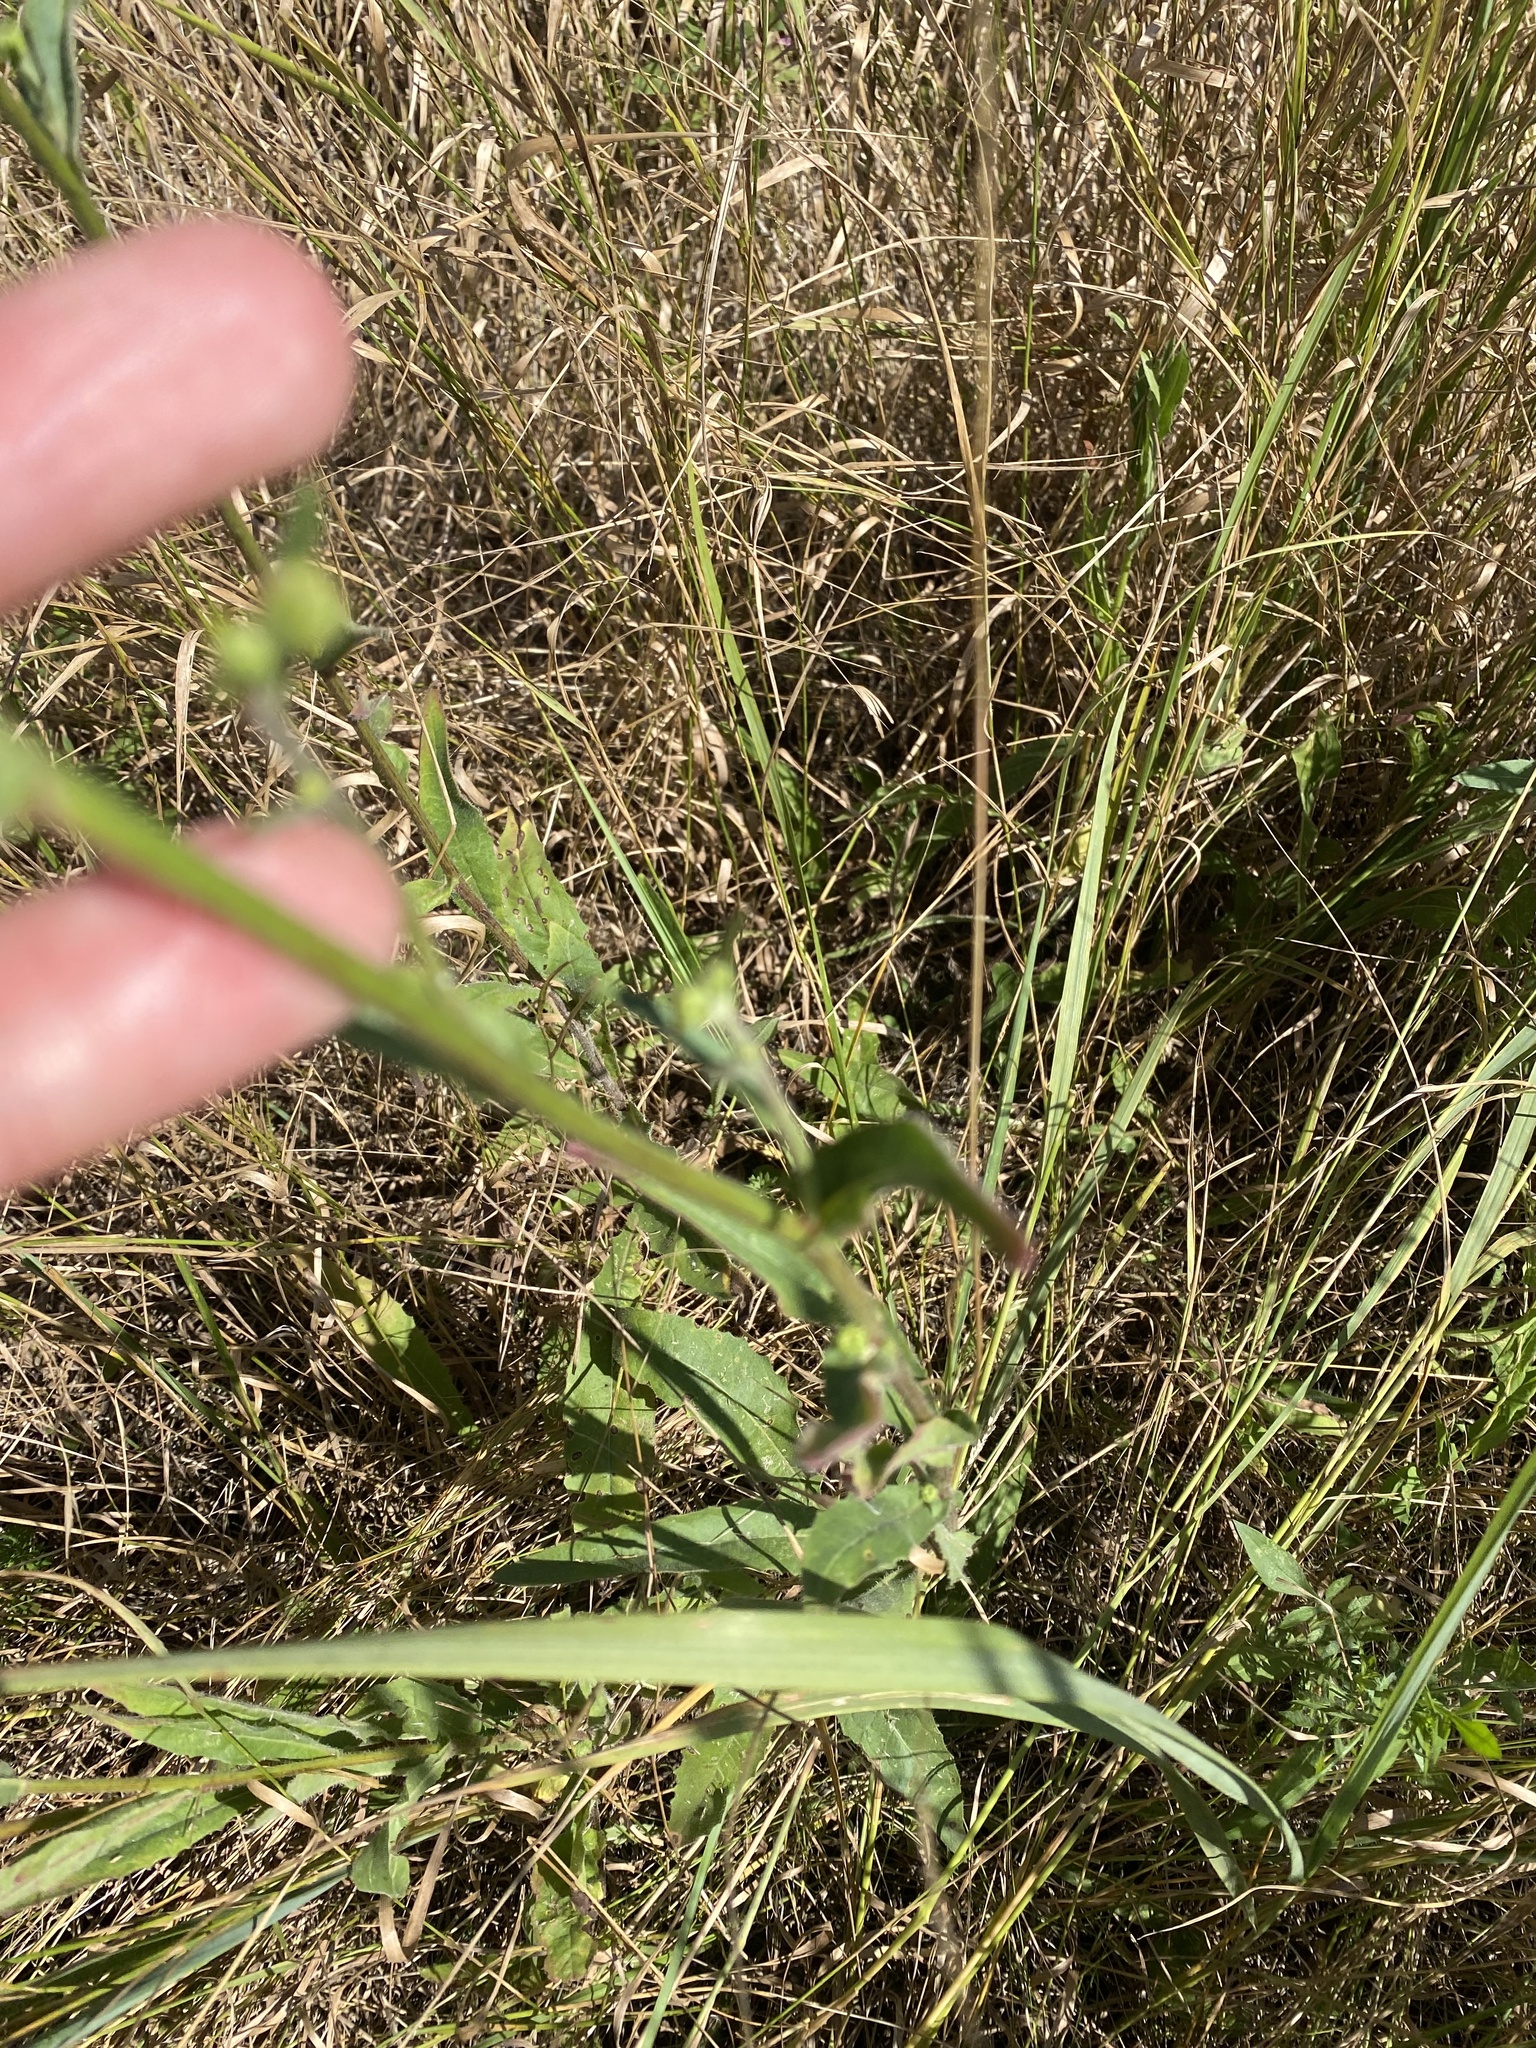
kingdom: Plantae
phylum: Tracheophyta
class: Magnoliopsida
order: Asterales
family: Asteraceae
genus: Picris
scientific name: Picris hieracioides
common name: Hawkweed oxtongue
